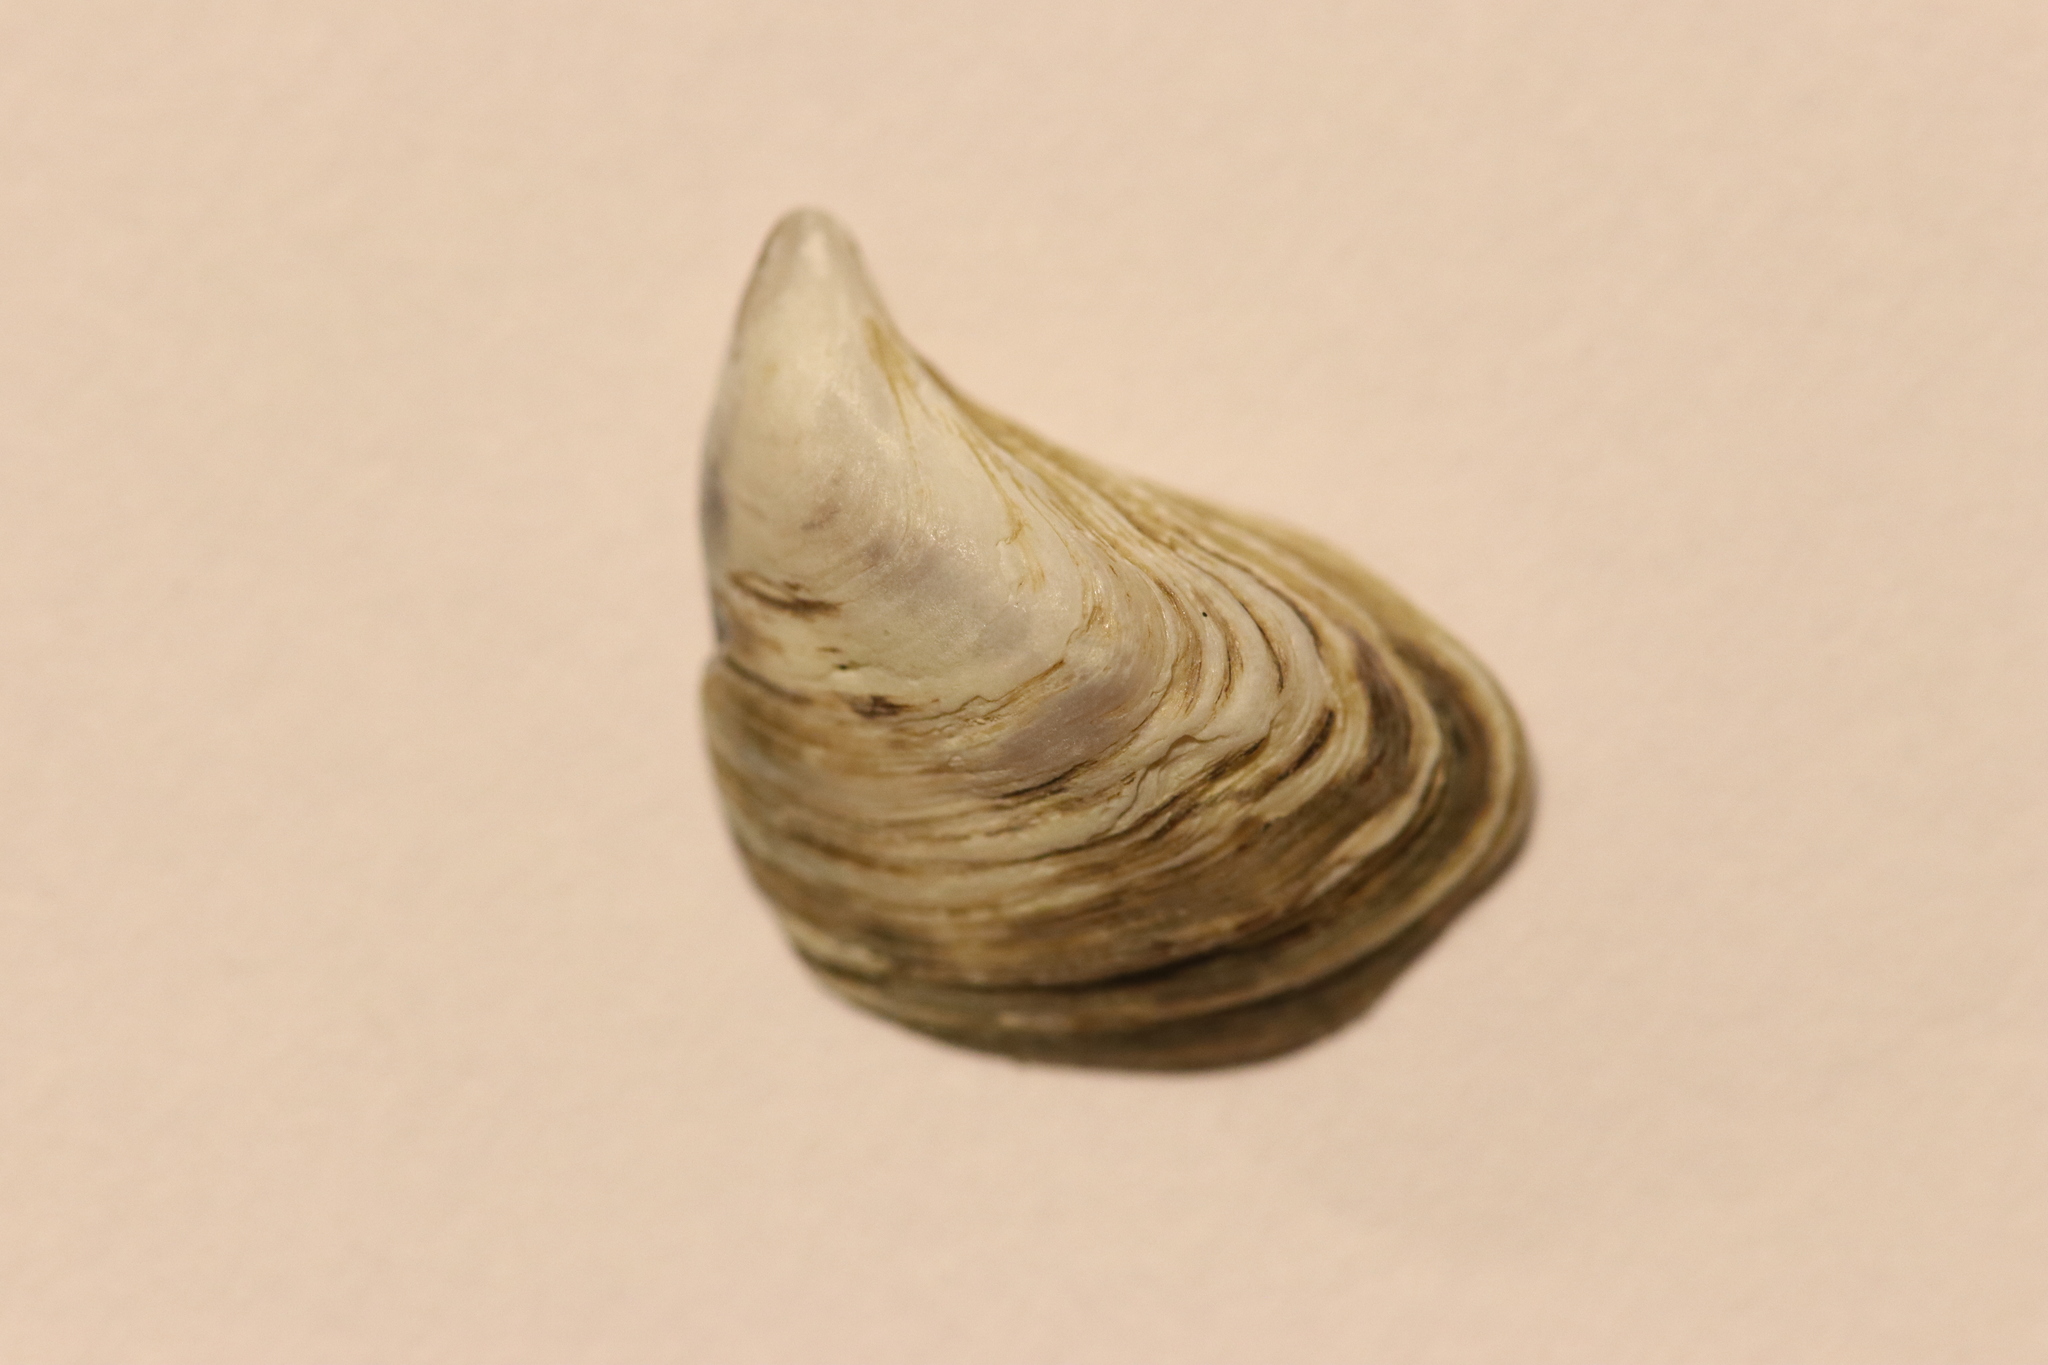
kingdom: Animalia
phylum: Mollusca
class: Bivalvia
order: Myida
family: Dreissenidae
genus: Dreissena
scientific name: Dreissena bugensis
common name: Quagga mussel
